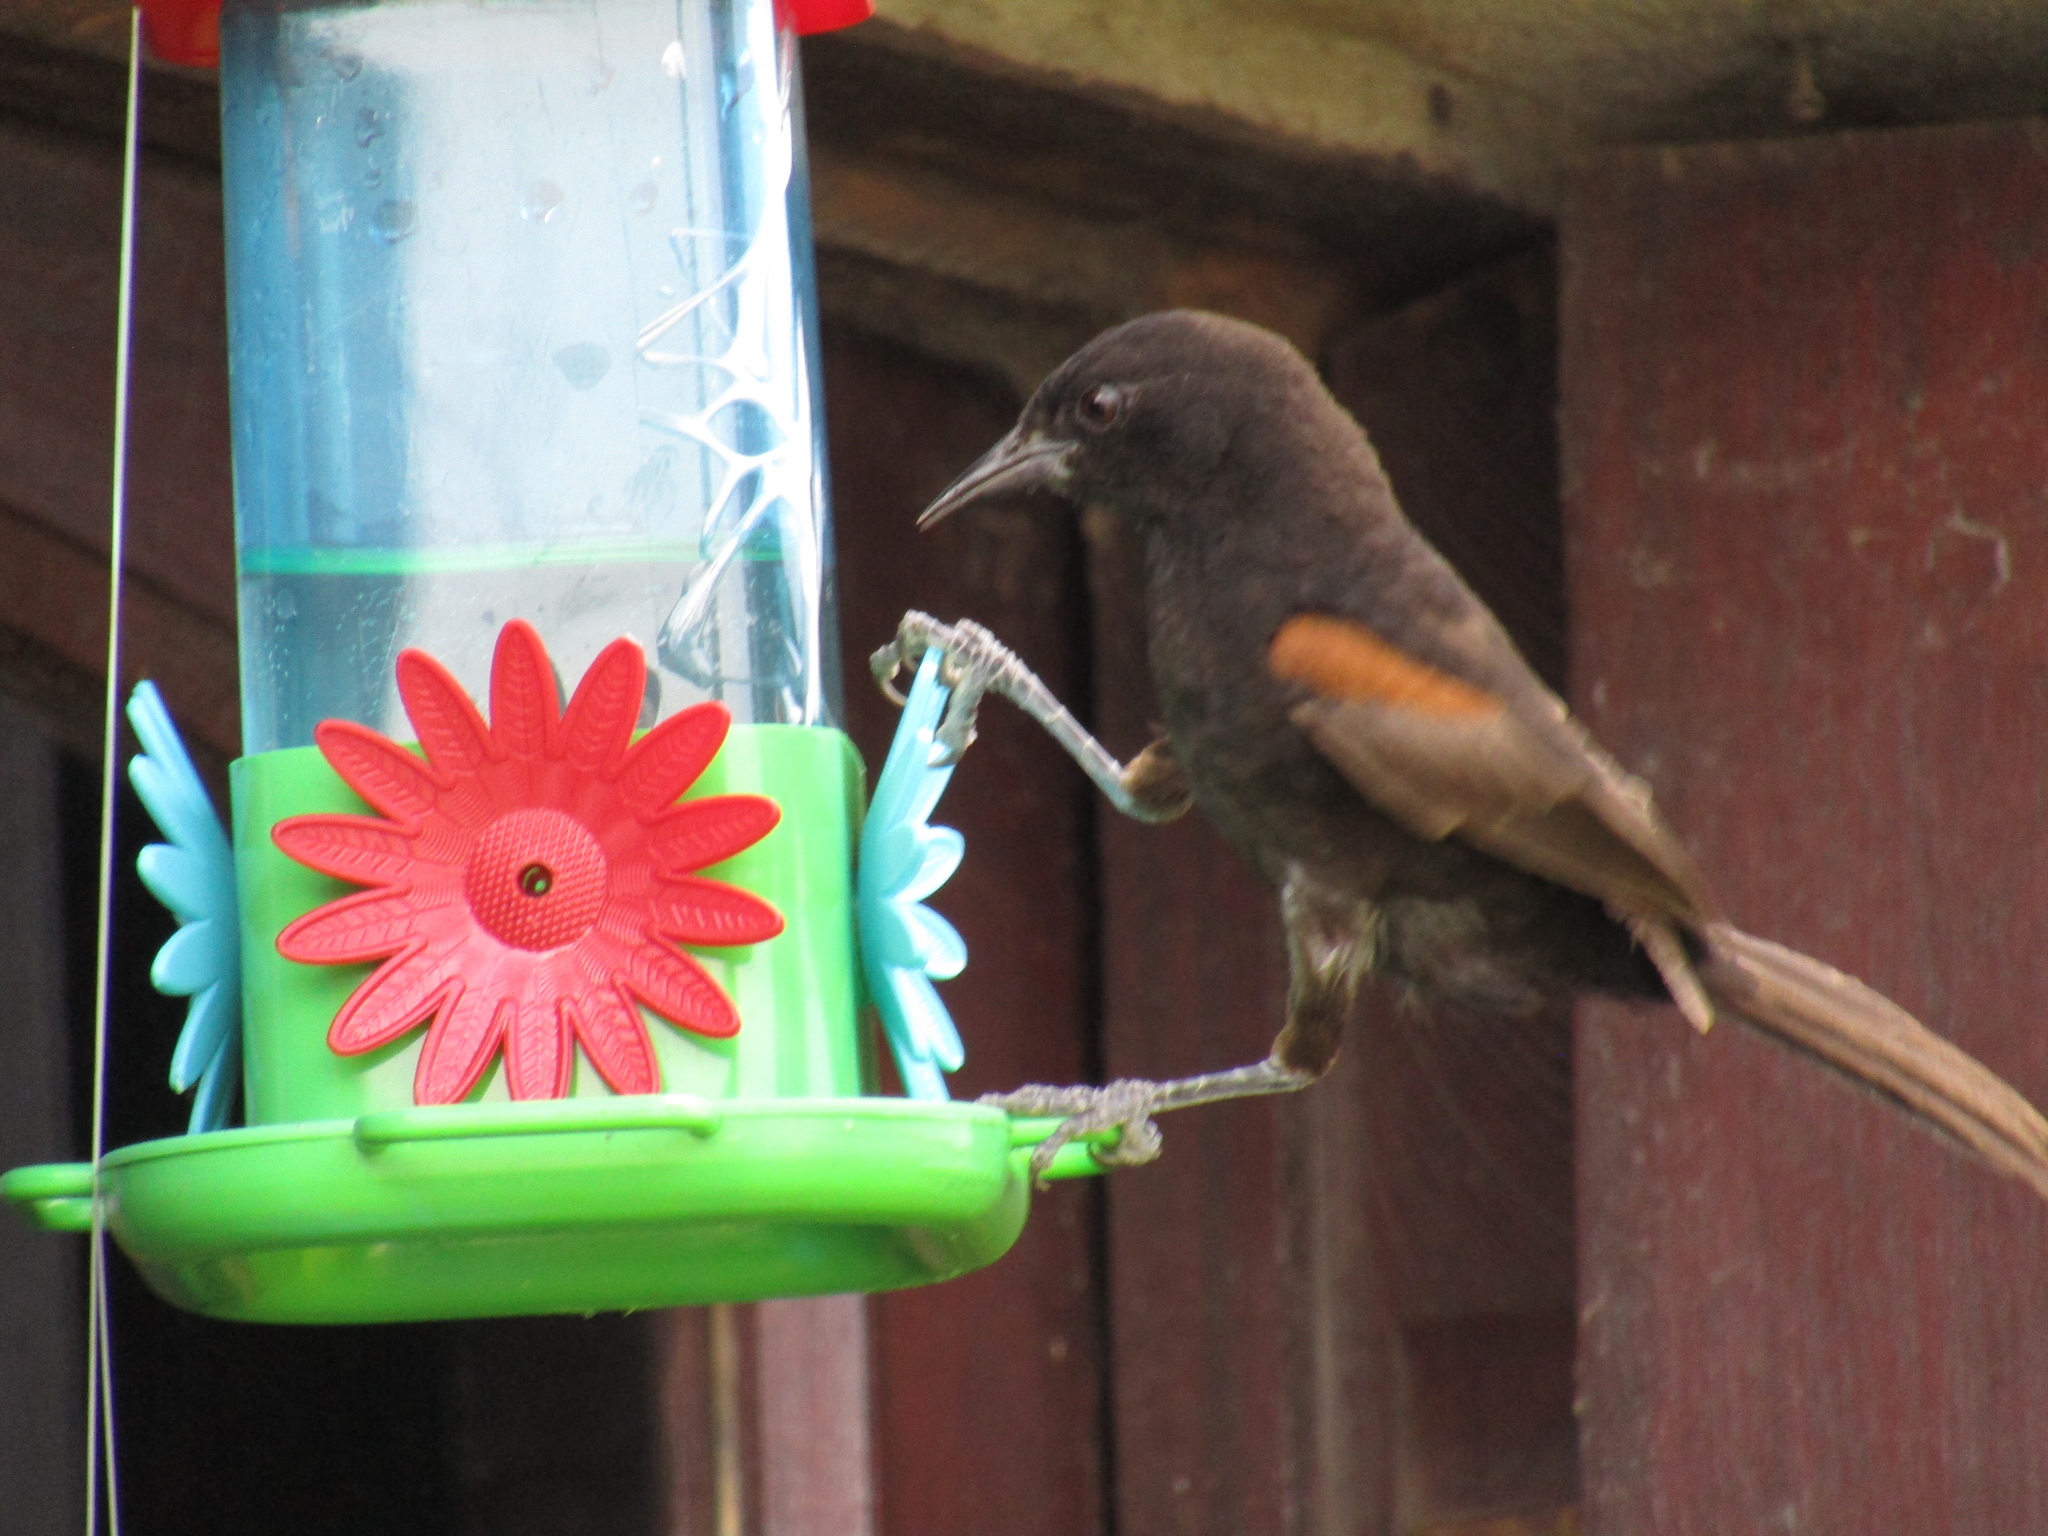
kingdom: Animalia
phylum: Chordata
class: Aves
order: Passeriformes
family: Icteridae
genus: Icterus
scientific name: Icterus cayanensis
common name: Epaulet oriole
